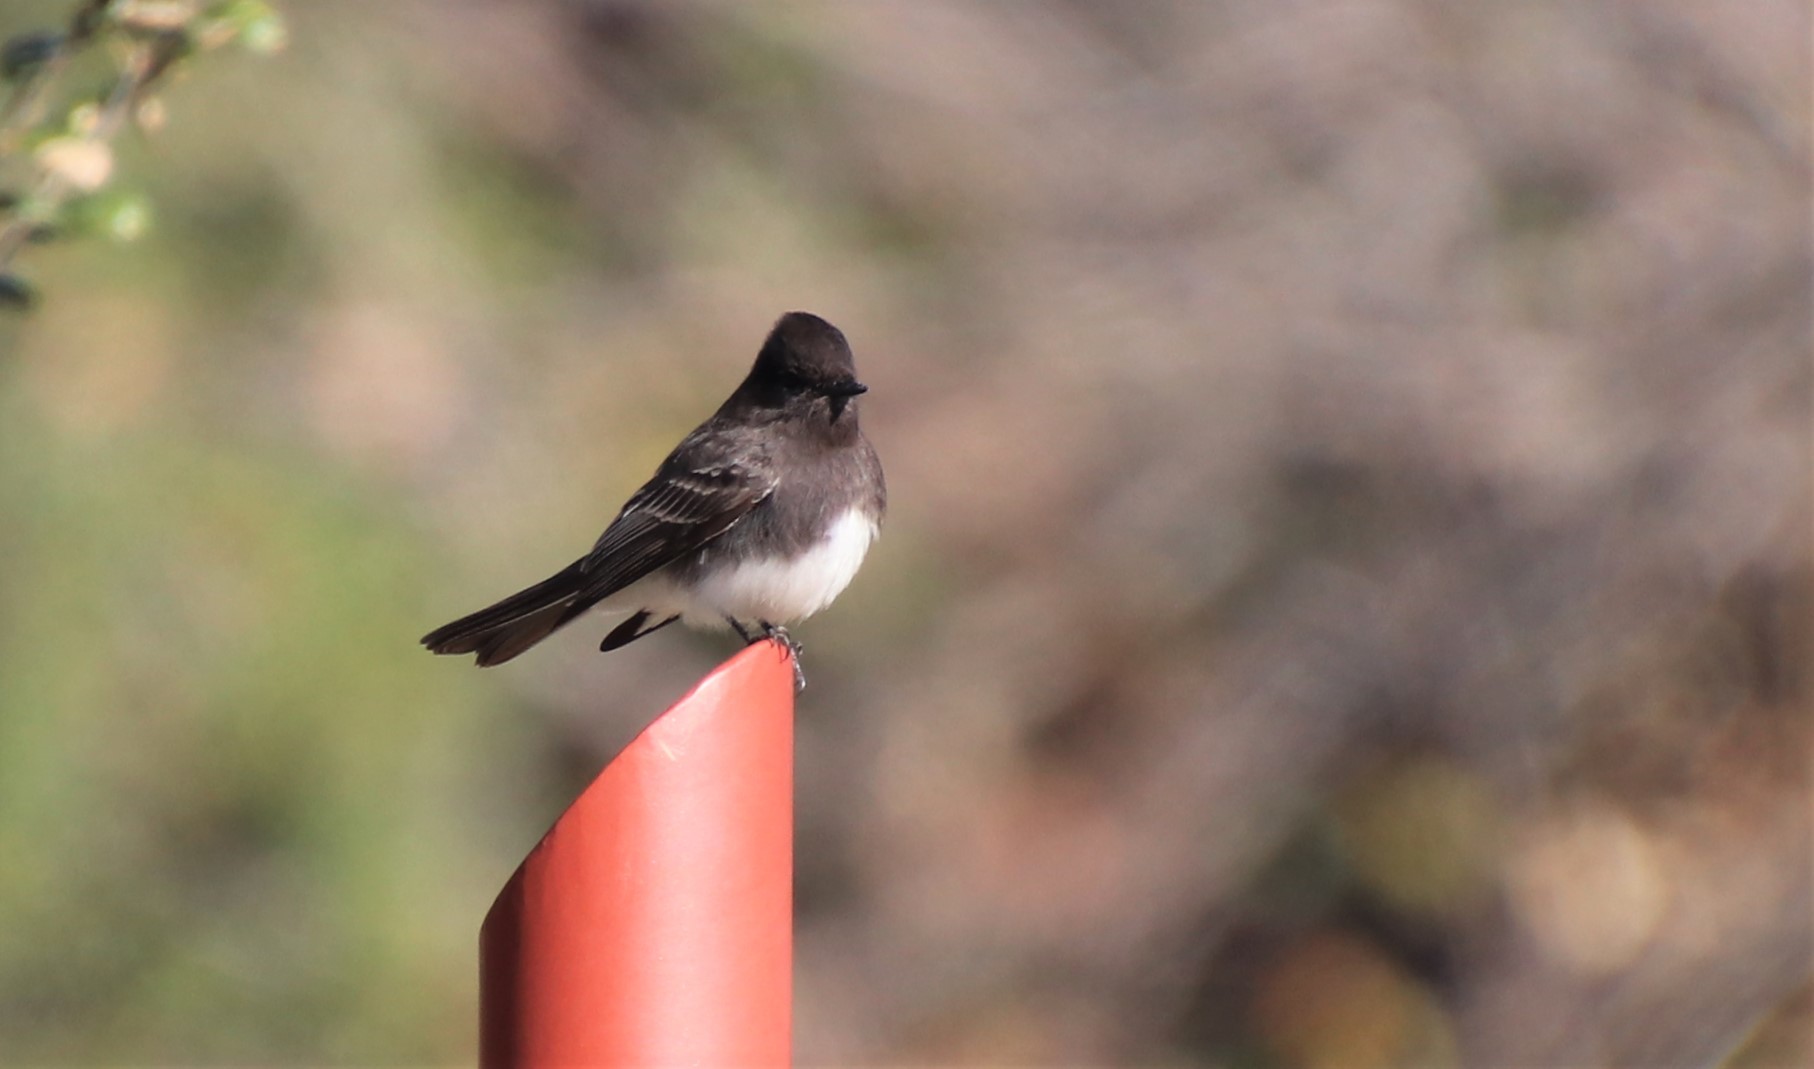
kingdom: Animalia
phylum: Chordata
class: Aves
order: Passeriformes
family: Tyrannidae
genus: Sayornis
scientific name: Sayornis nigricans
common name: Black phoebe
